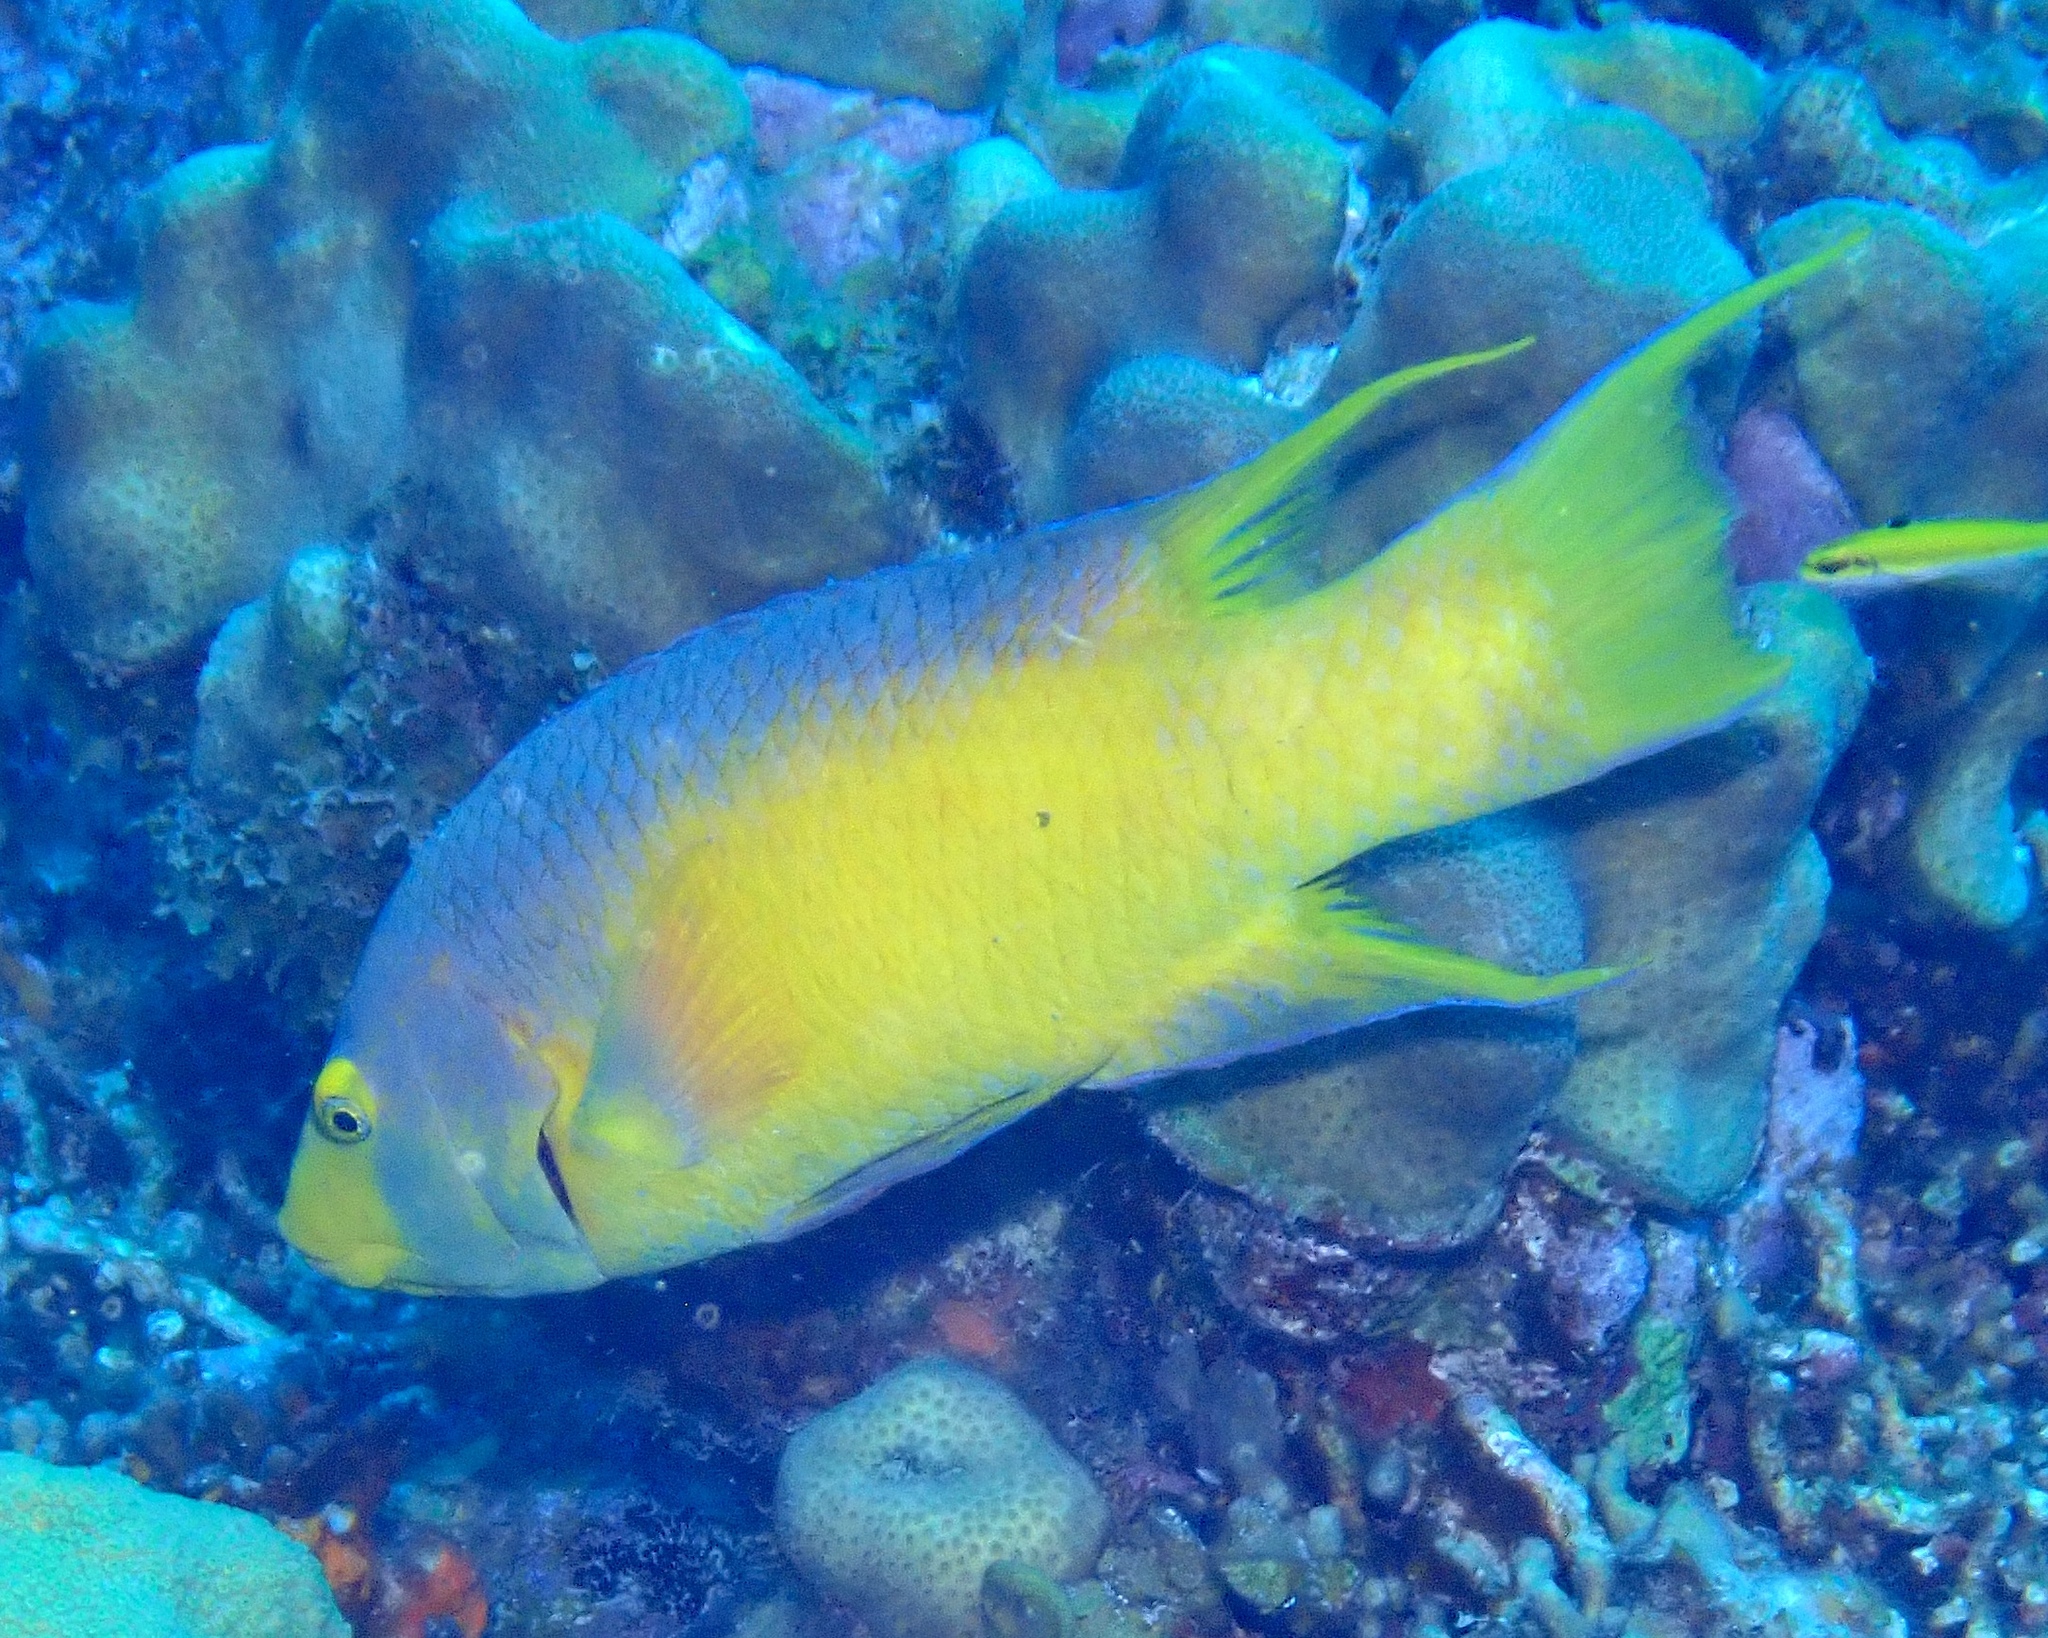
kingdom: Animalia
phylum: Chordata
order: Perciformes
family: Labridae
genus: Bodianus
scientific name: Bodianus rufus
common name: Spanish hogfish
